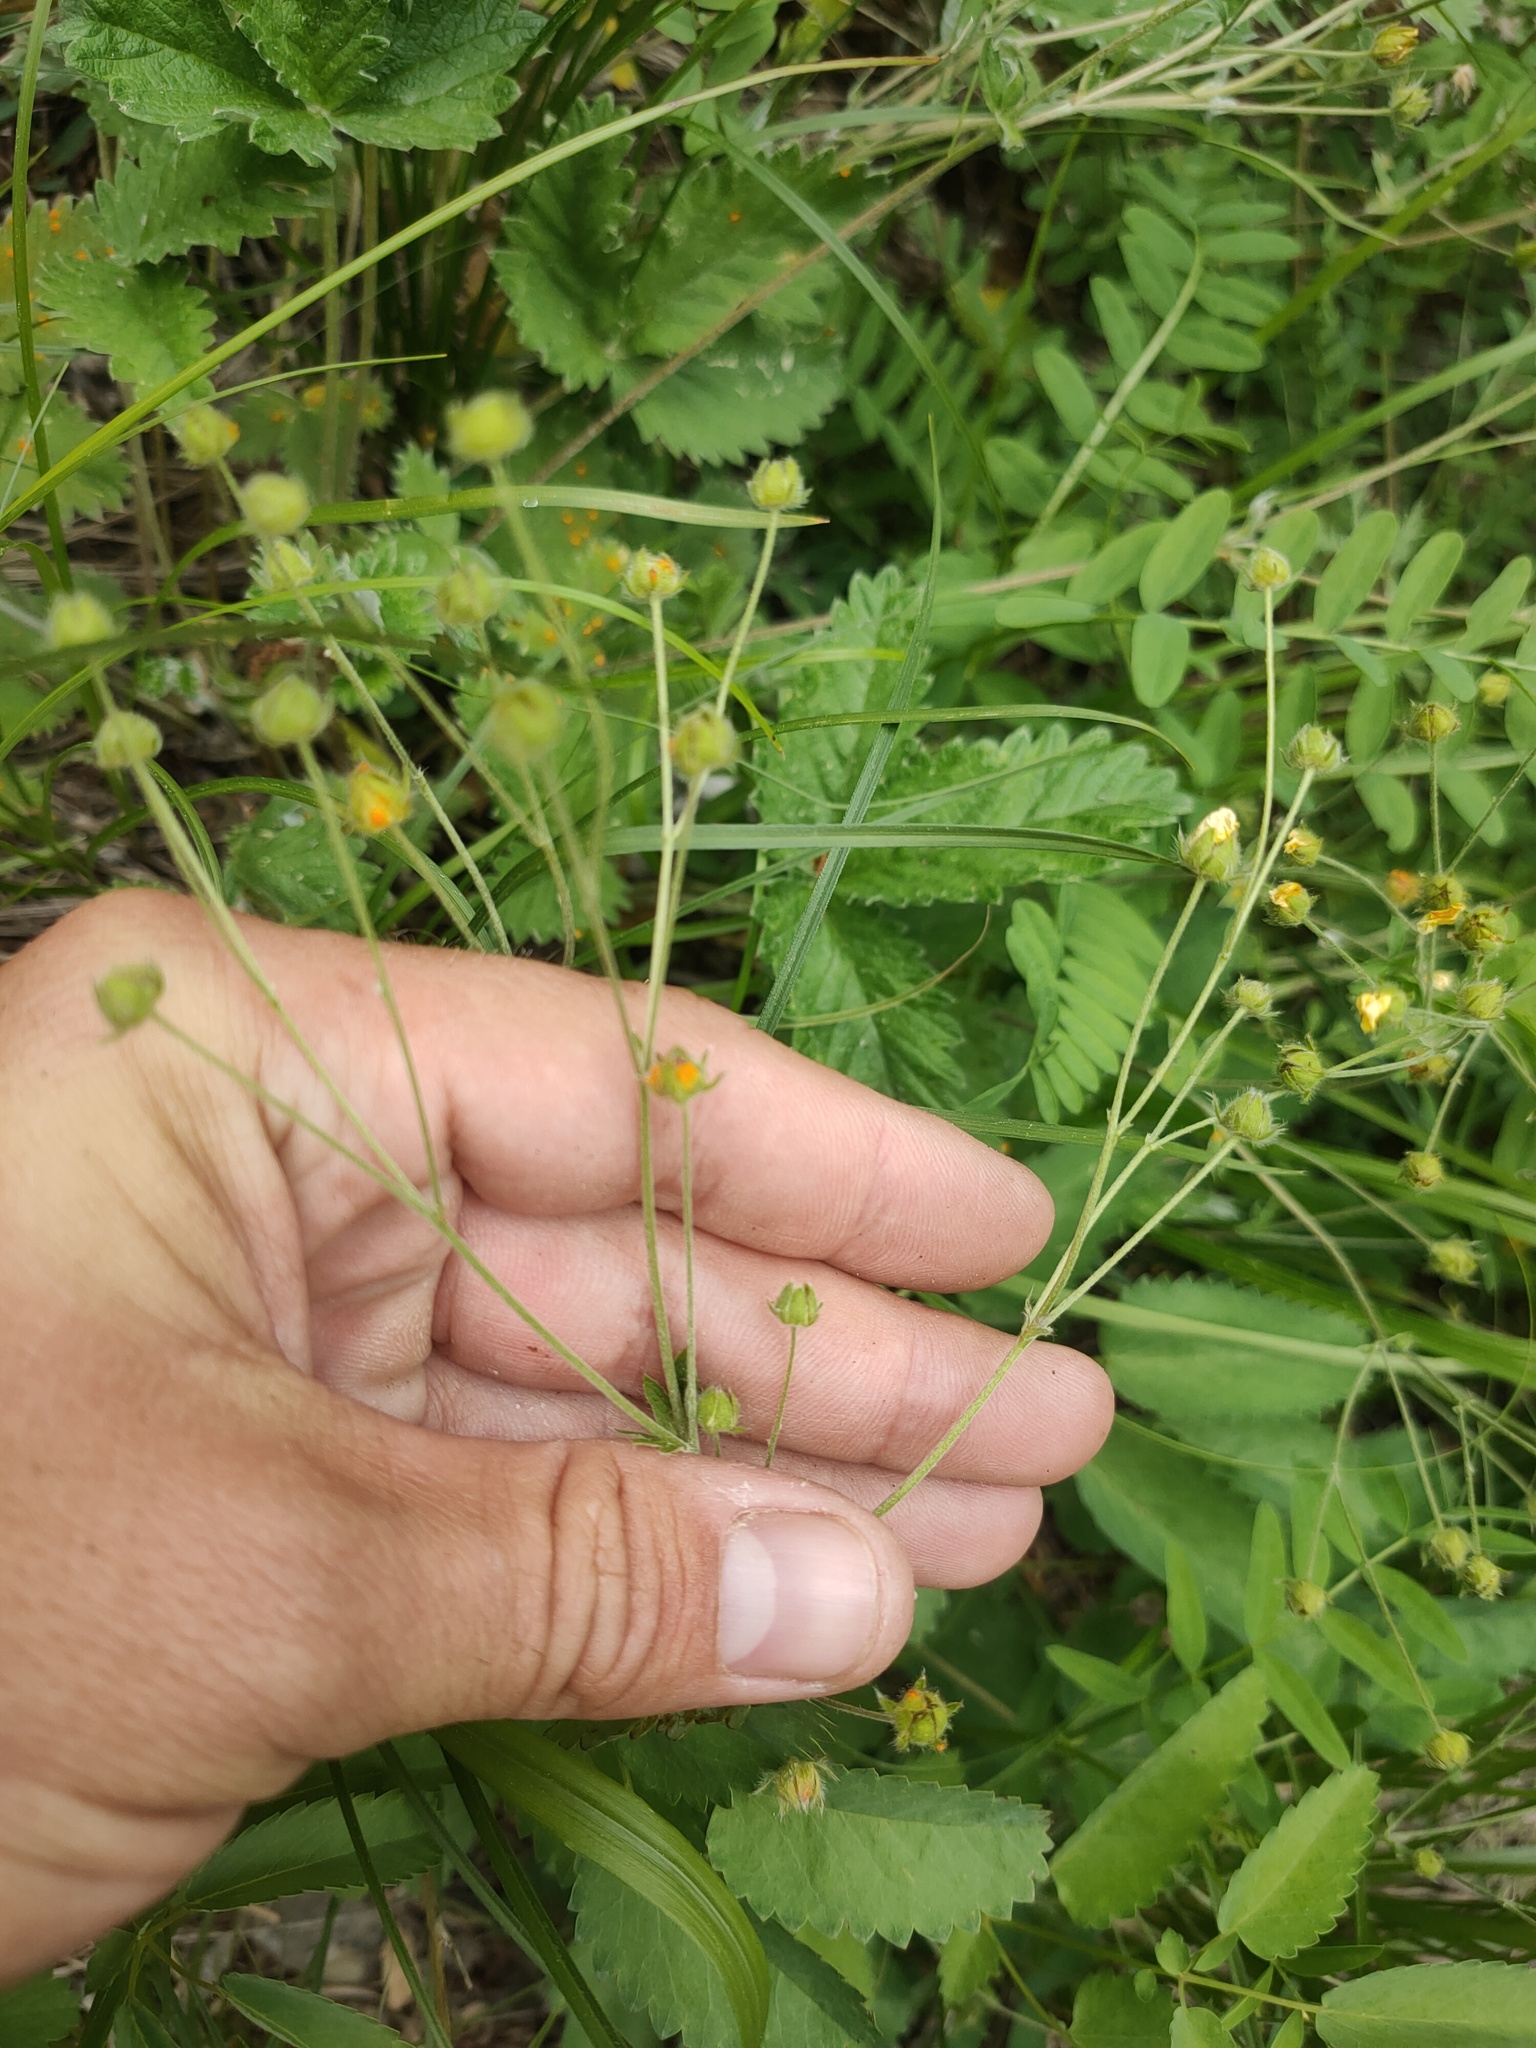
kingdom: Plantae
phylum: Tracheophyta
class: Magnoliopsida
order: Rosales
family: Rosaceae
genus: Potentilla
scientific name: Potentilla crebridens
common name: Congested cinquefoil
